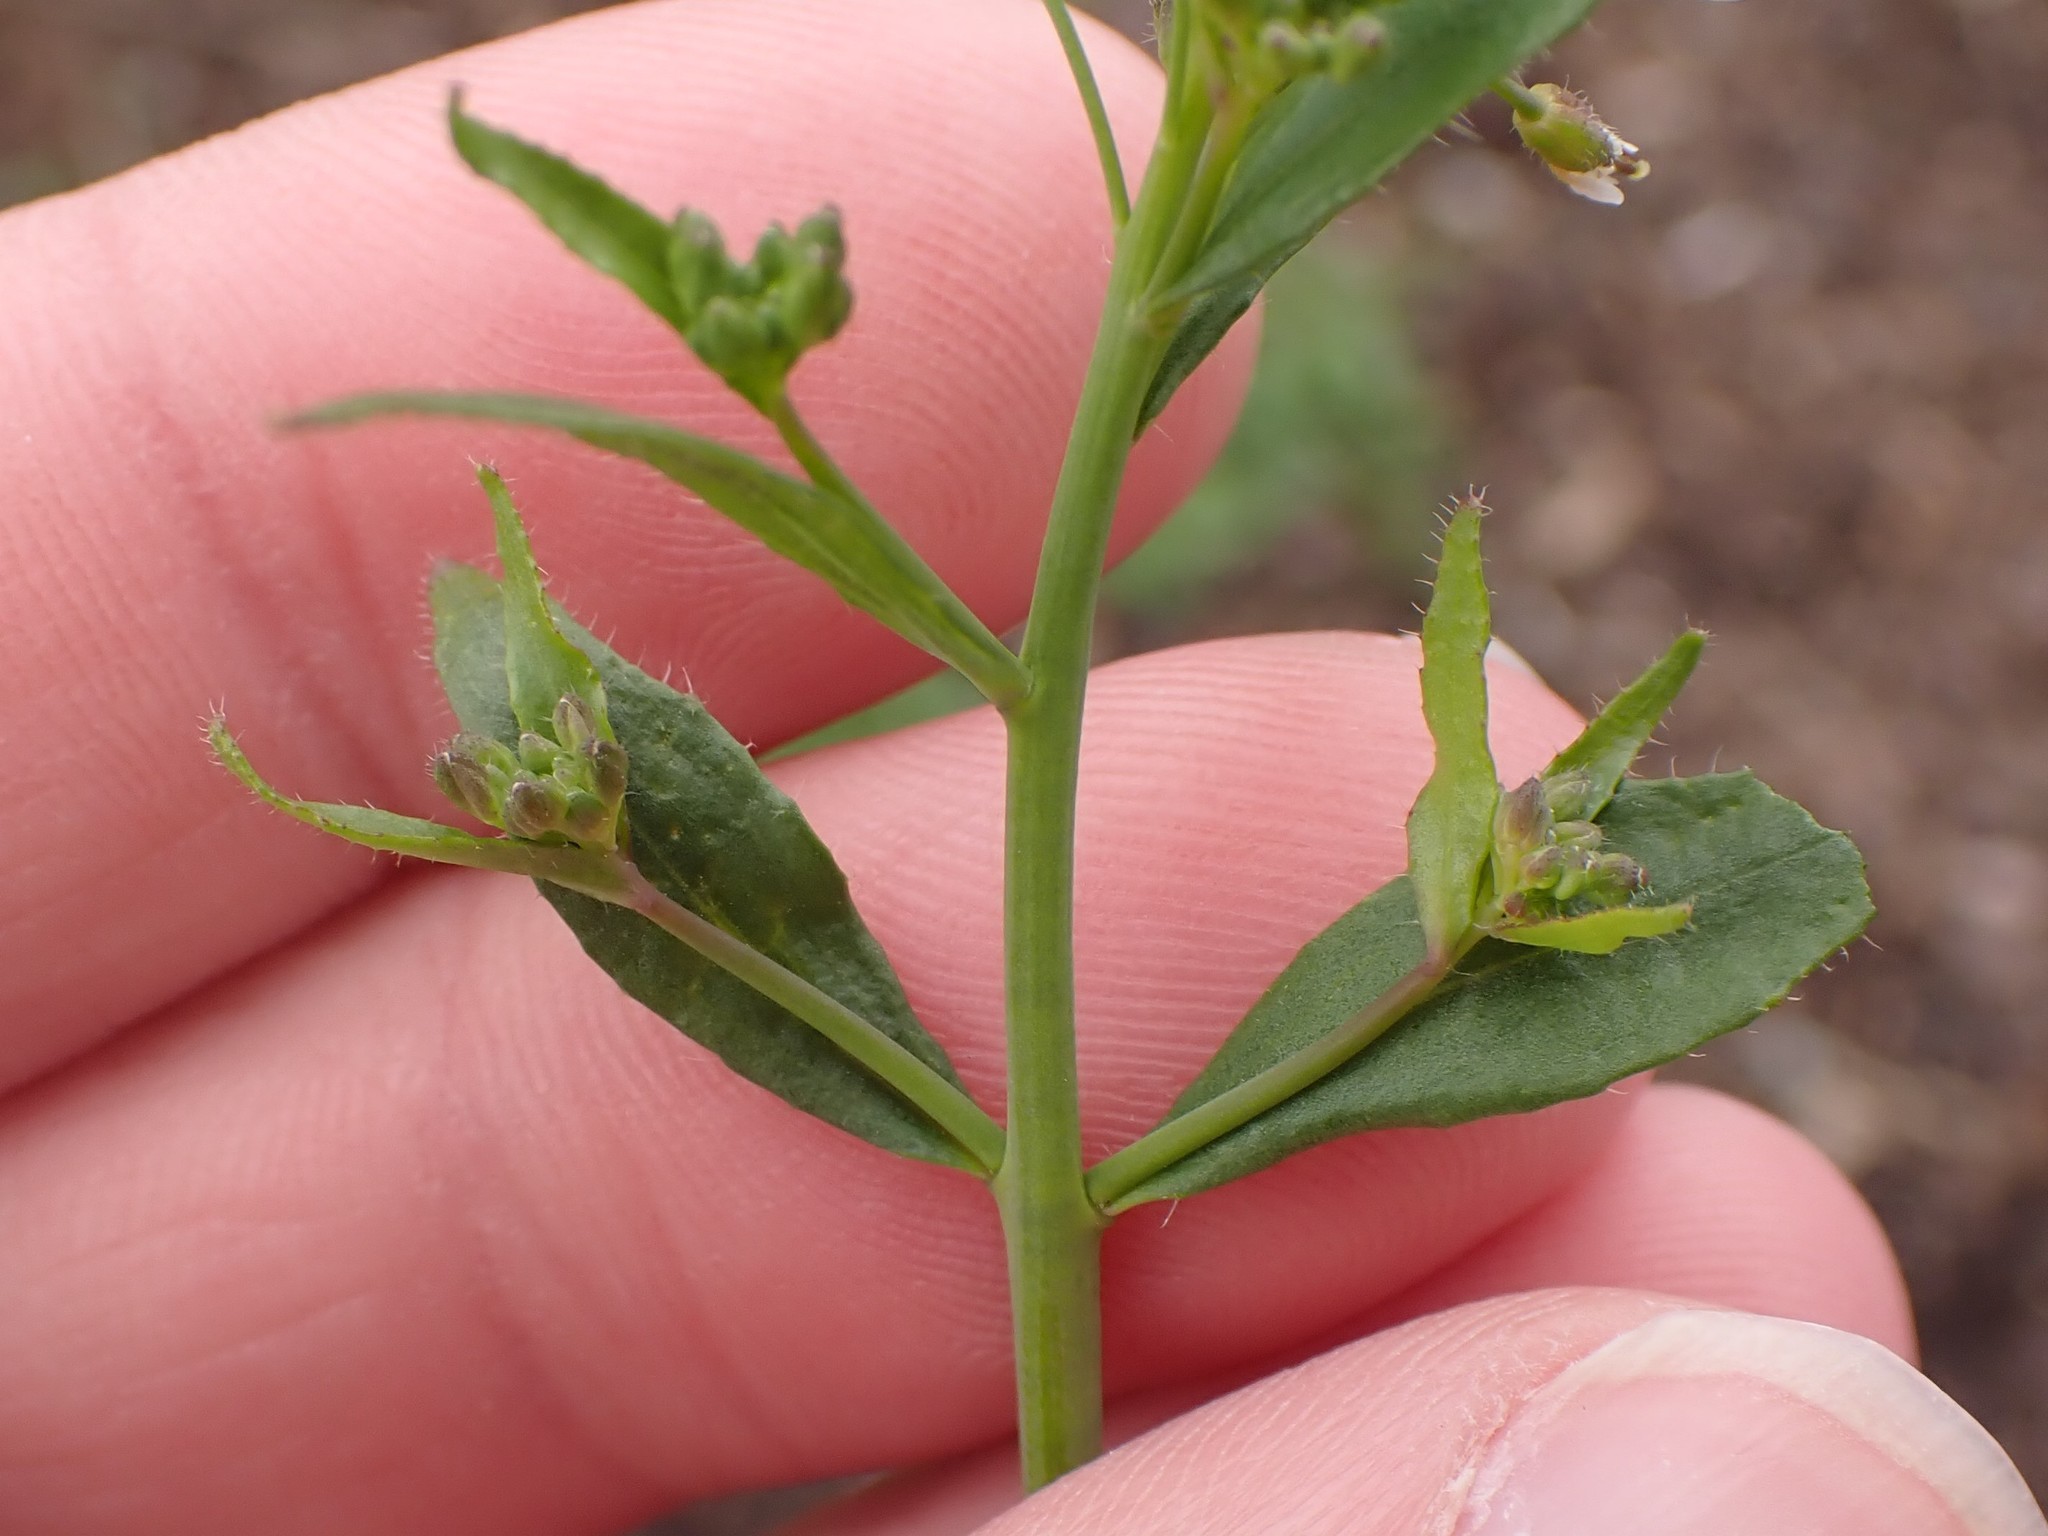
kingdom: Plantae
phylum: Tracheophyta
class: Magnoliopsida
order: Brassicales
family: Brassicaceae
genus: Arabidopsis
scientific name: Arabidopsis thaliana
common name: Thale cress
